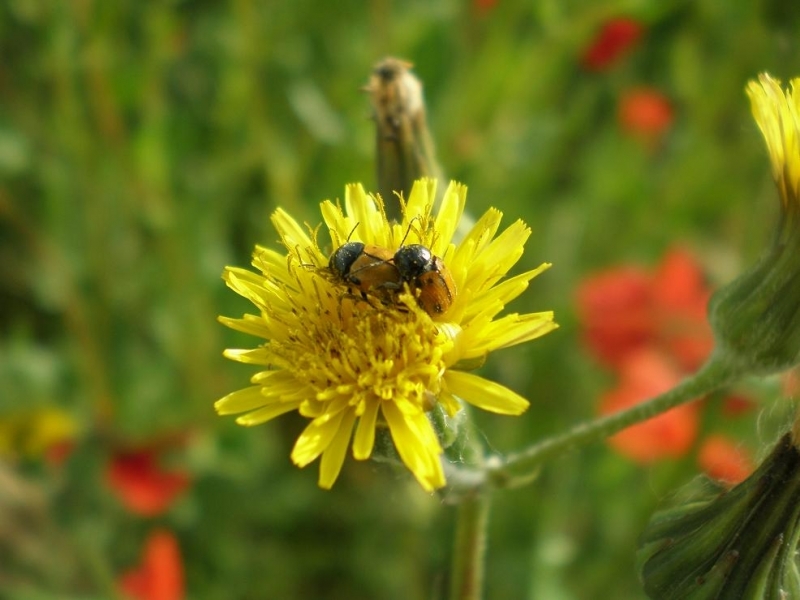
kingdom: Animalia
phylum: Arthropoda
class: Insecta
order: Coleoptera
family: Chrysomelidae
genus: Cryptocephalus
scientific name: Cryptocephalus rugicollis
